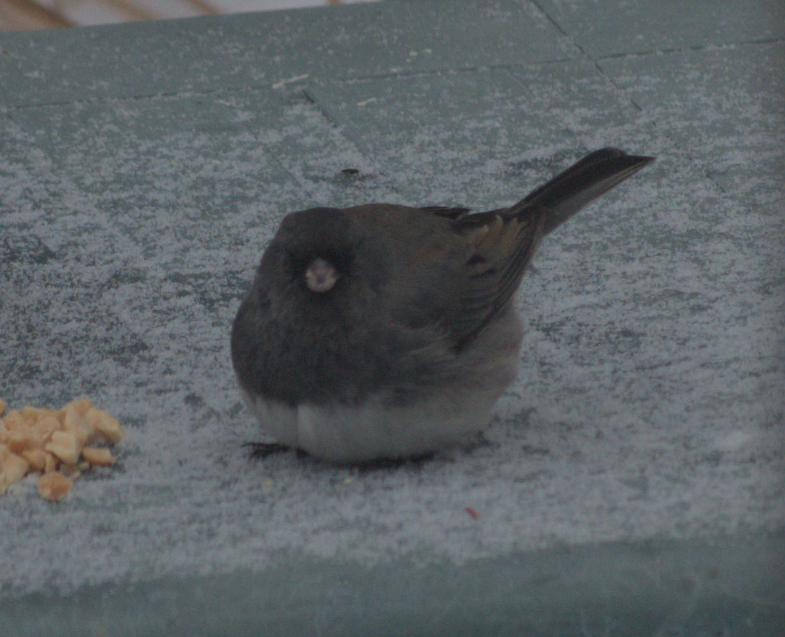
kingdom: Animalia
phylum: Chordata
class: Aves
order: Passeriformes
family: Passerellidae
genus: Junco
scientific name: Junco hyemalis
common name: Dark-eyed junco
